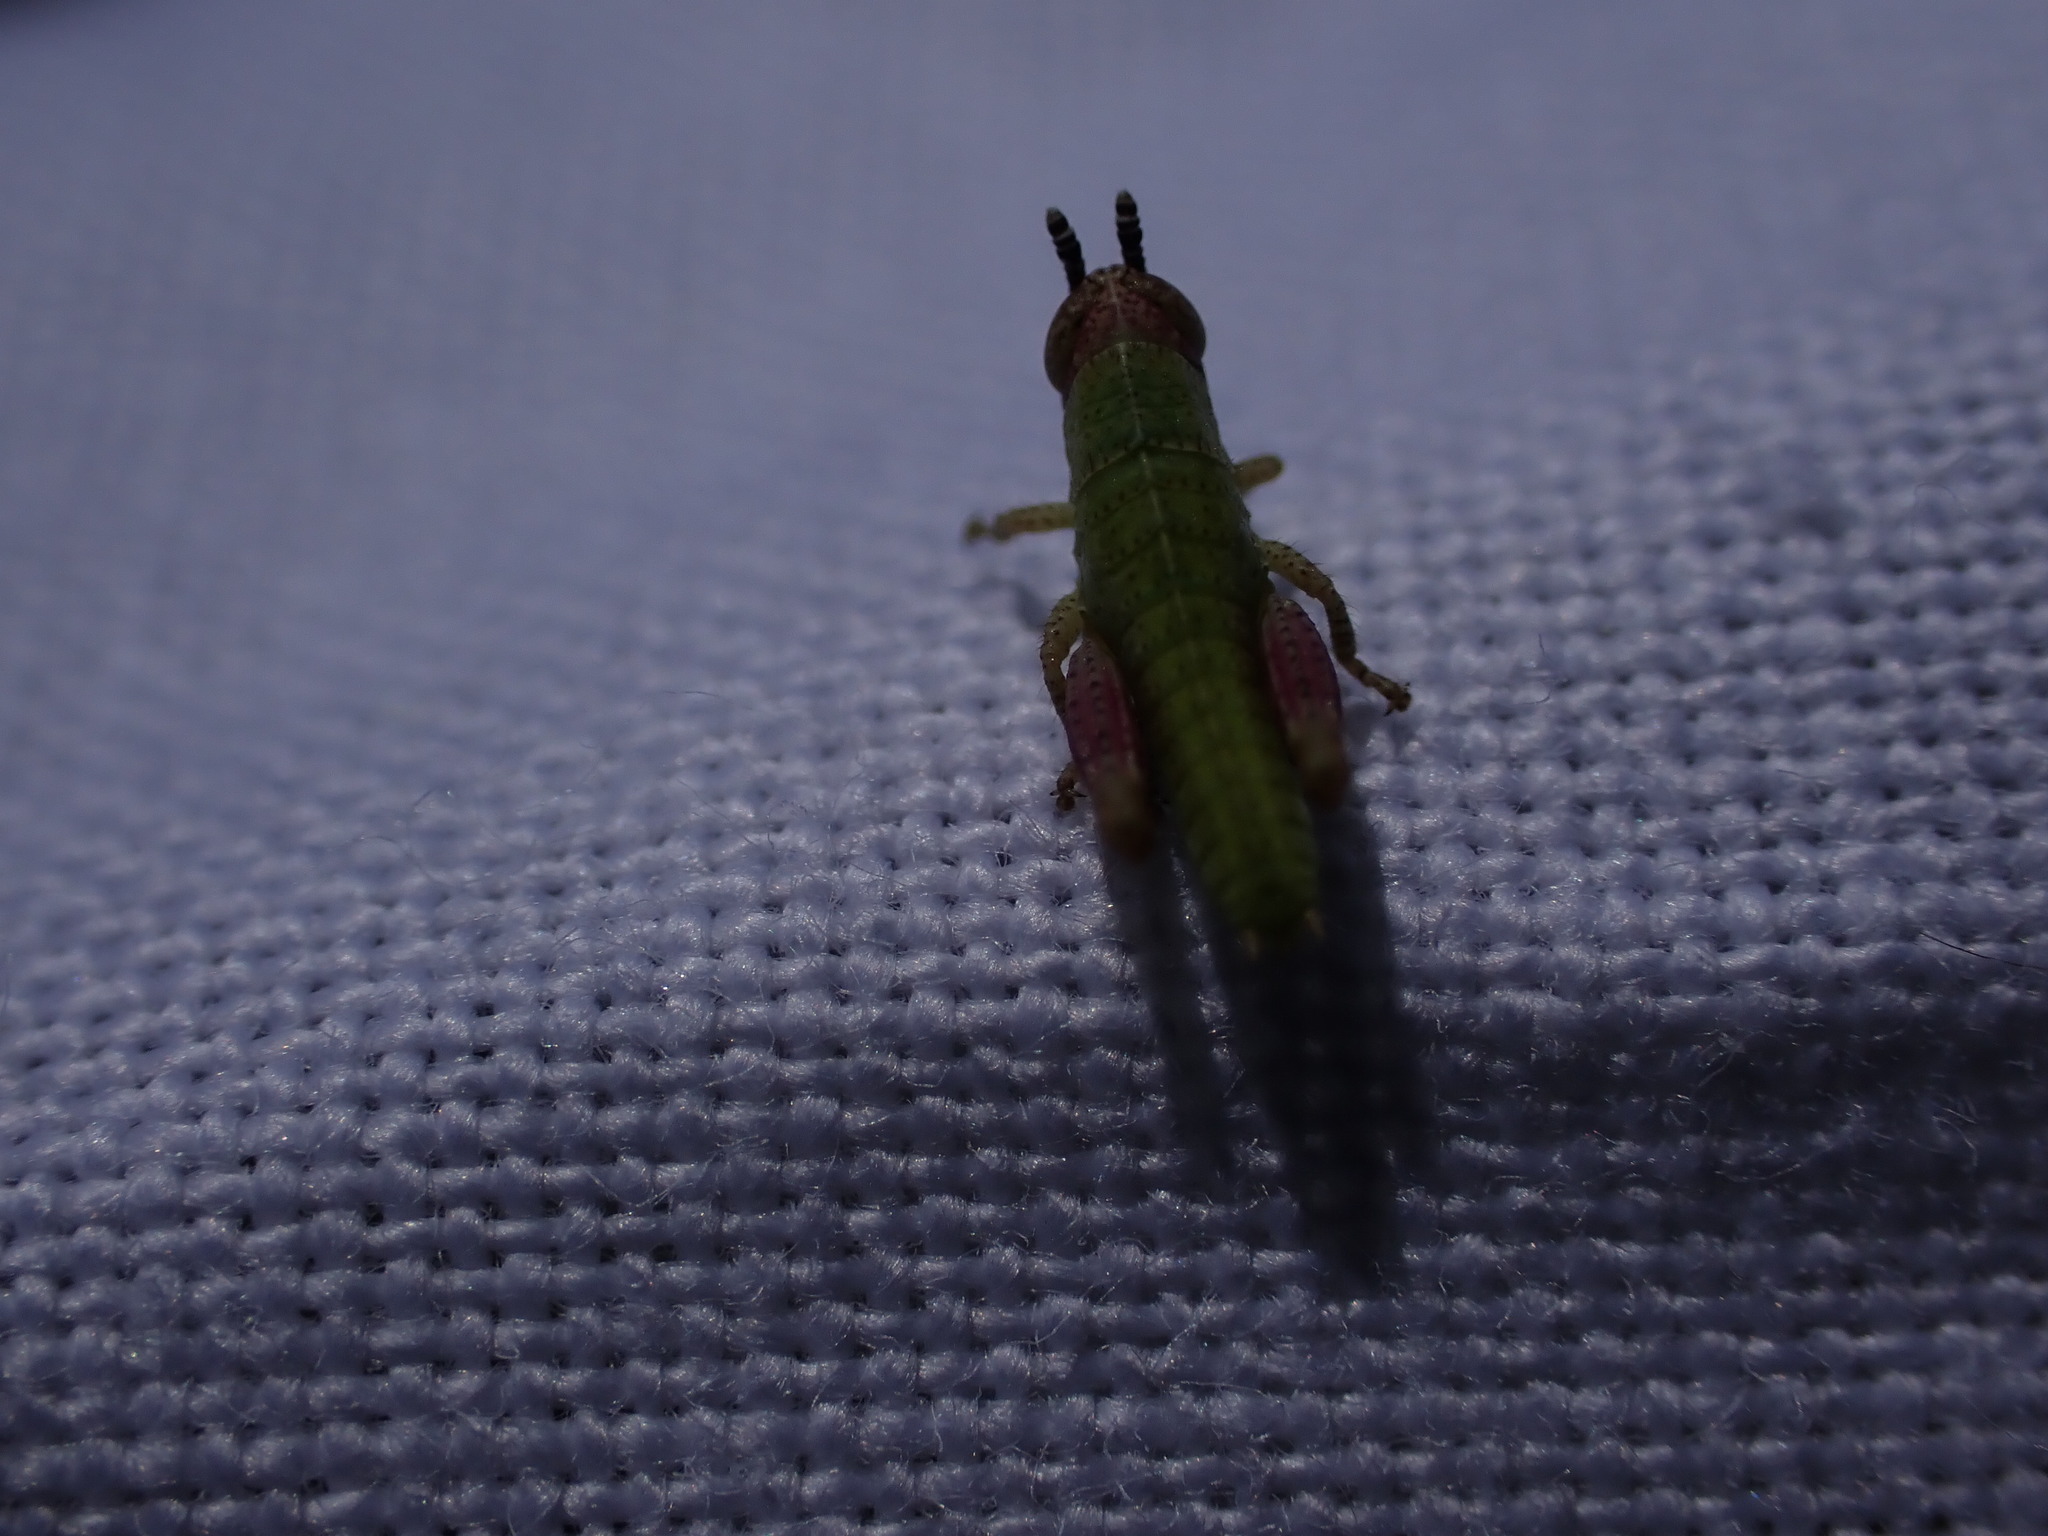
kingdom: Animalia
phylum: Arthropoda
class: Insecta
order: Orthoptera
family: Acrididae
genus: Pezotettix
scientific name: Pezotettix giornae
